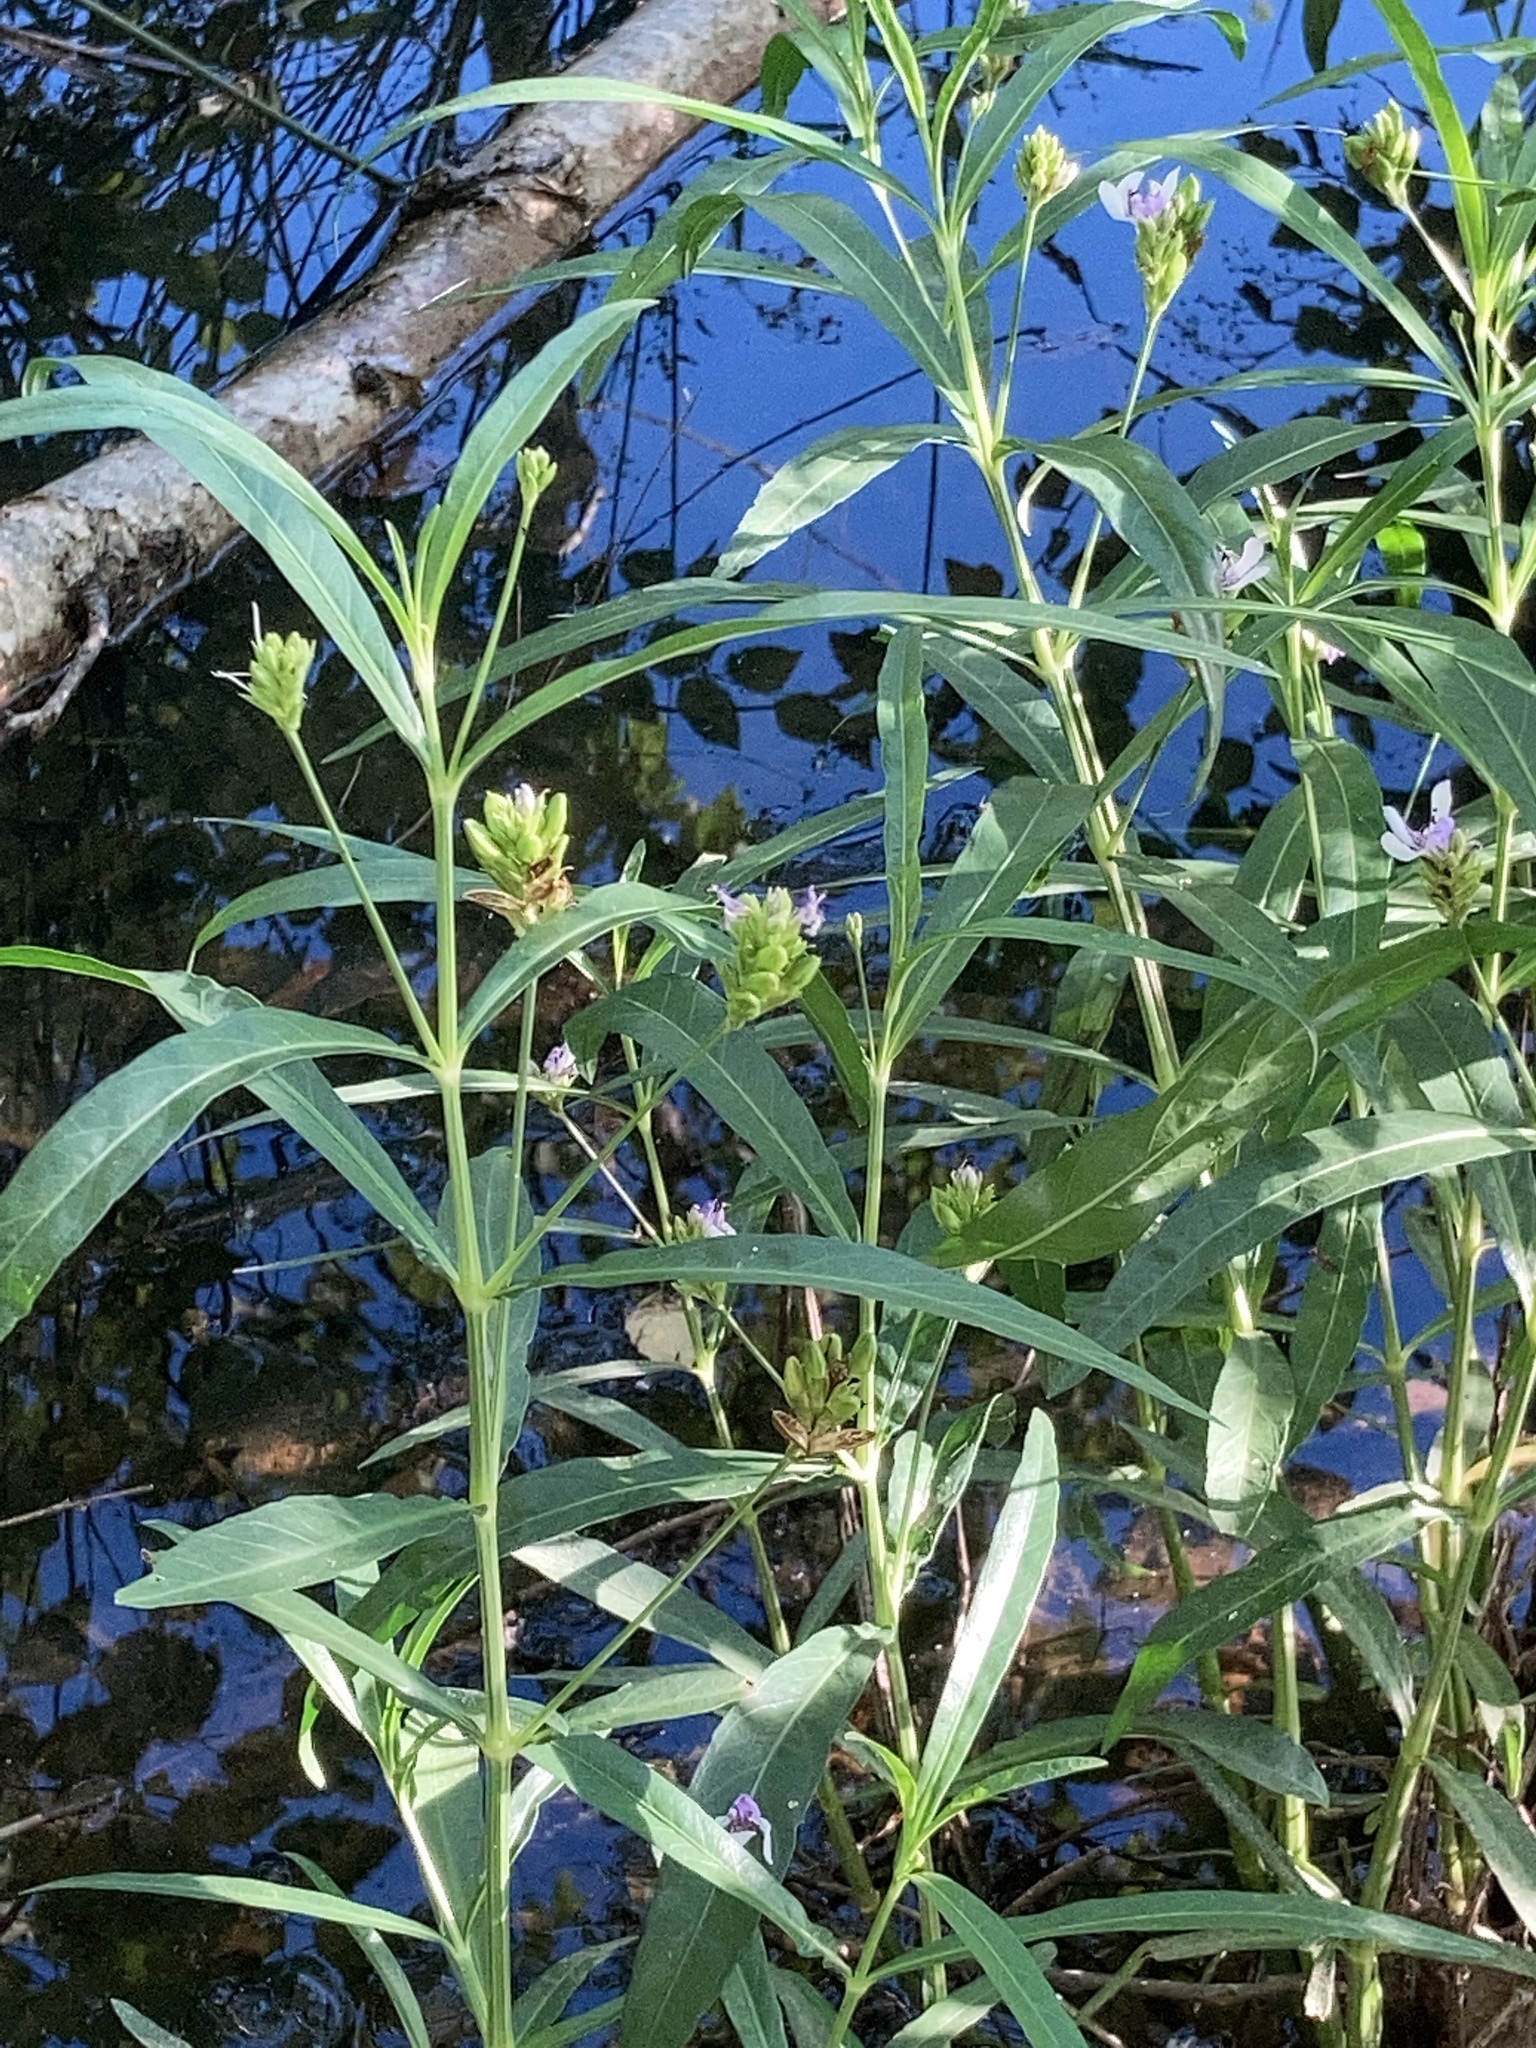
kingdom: Plantae
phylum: Tracheophyta
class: Magnoliopsida
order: Lamiales
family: Acanthaceae
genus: Dianthera
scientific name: Dianthera americana
